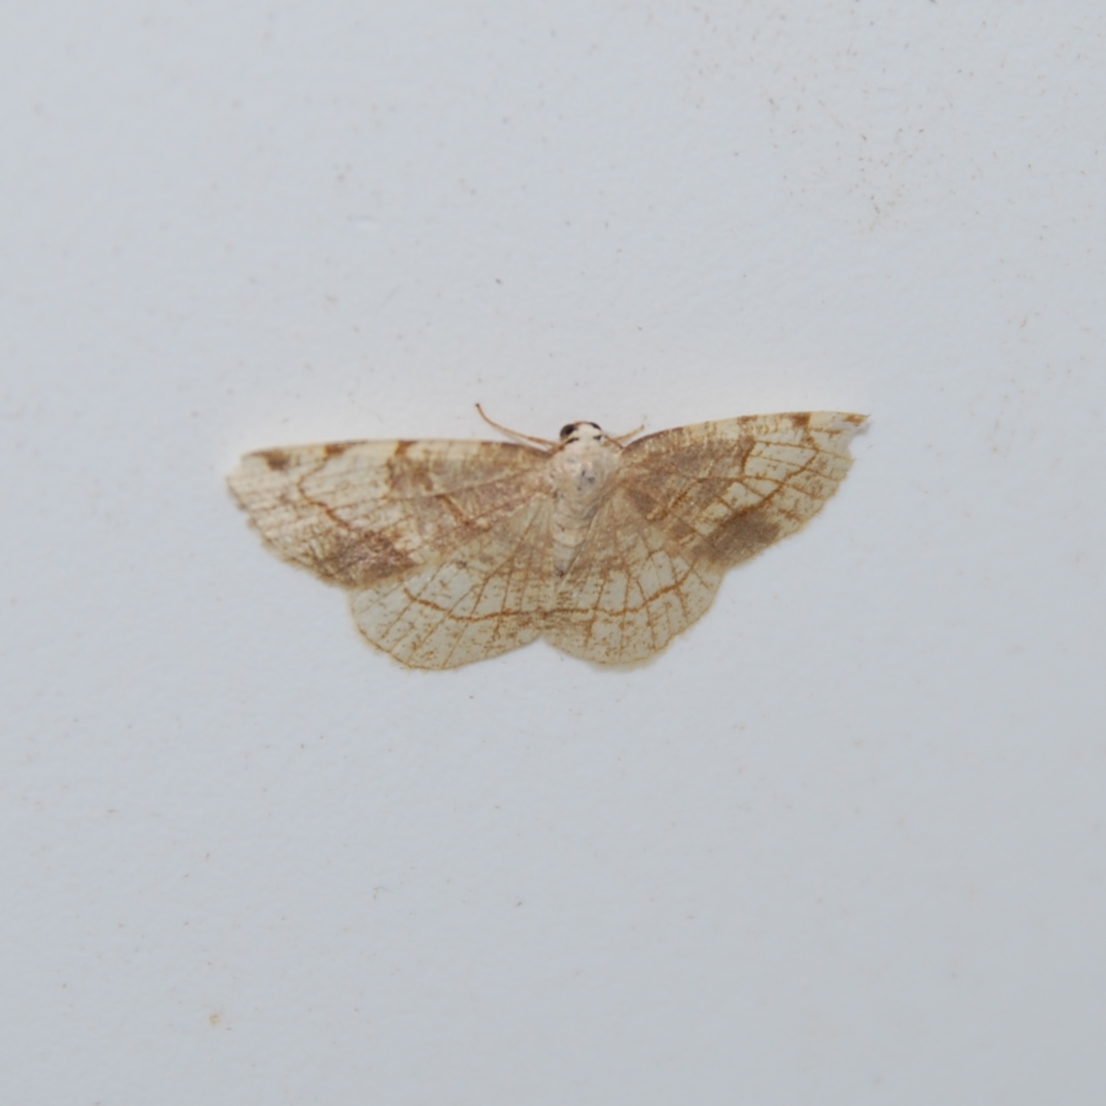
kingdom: Animalia
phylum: Arthropoda
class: Insecta
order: Lepidoptera
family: Geometridae
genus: Stegania
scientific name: Stegania trimaculata
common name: Dorset cream wave
